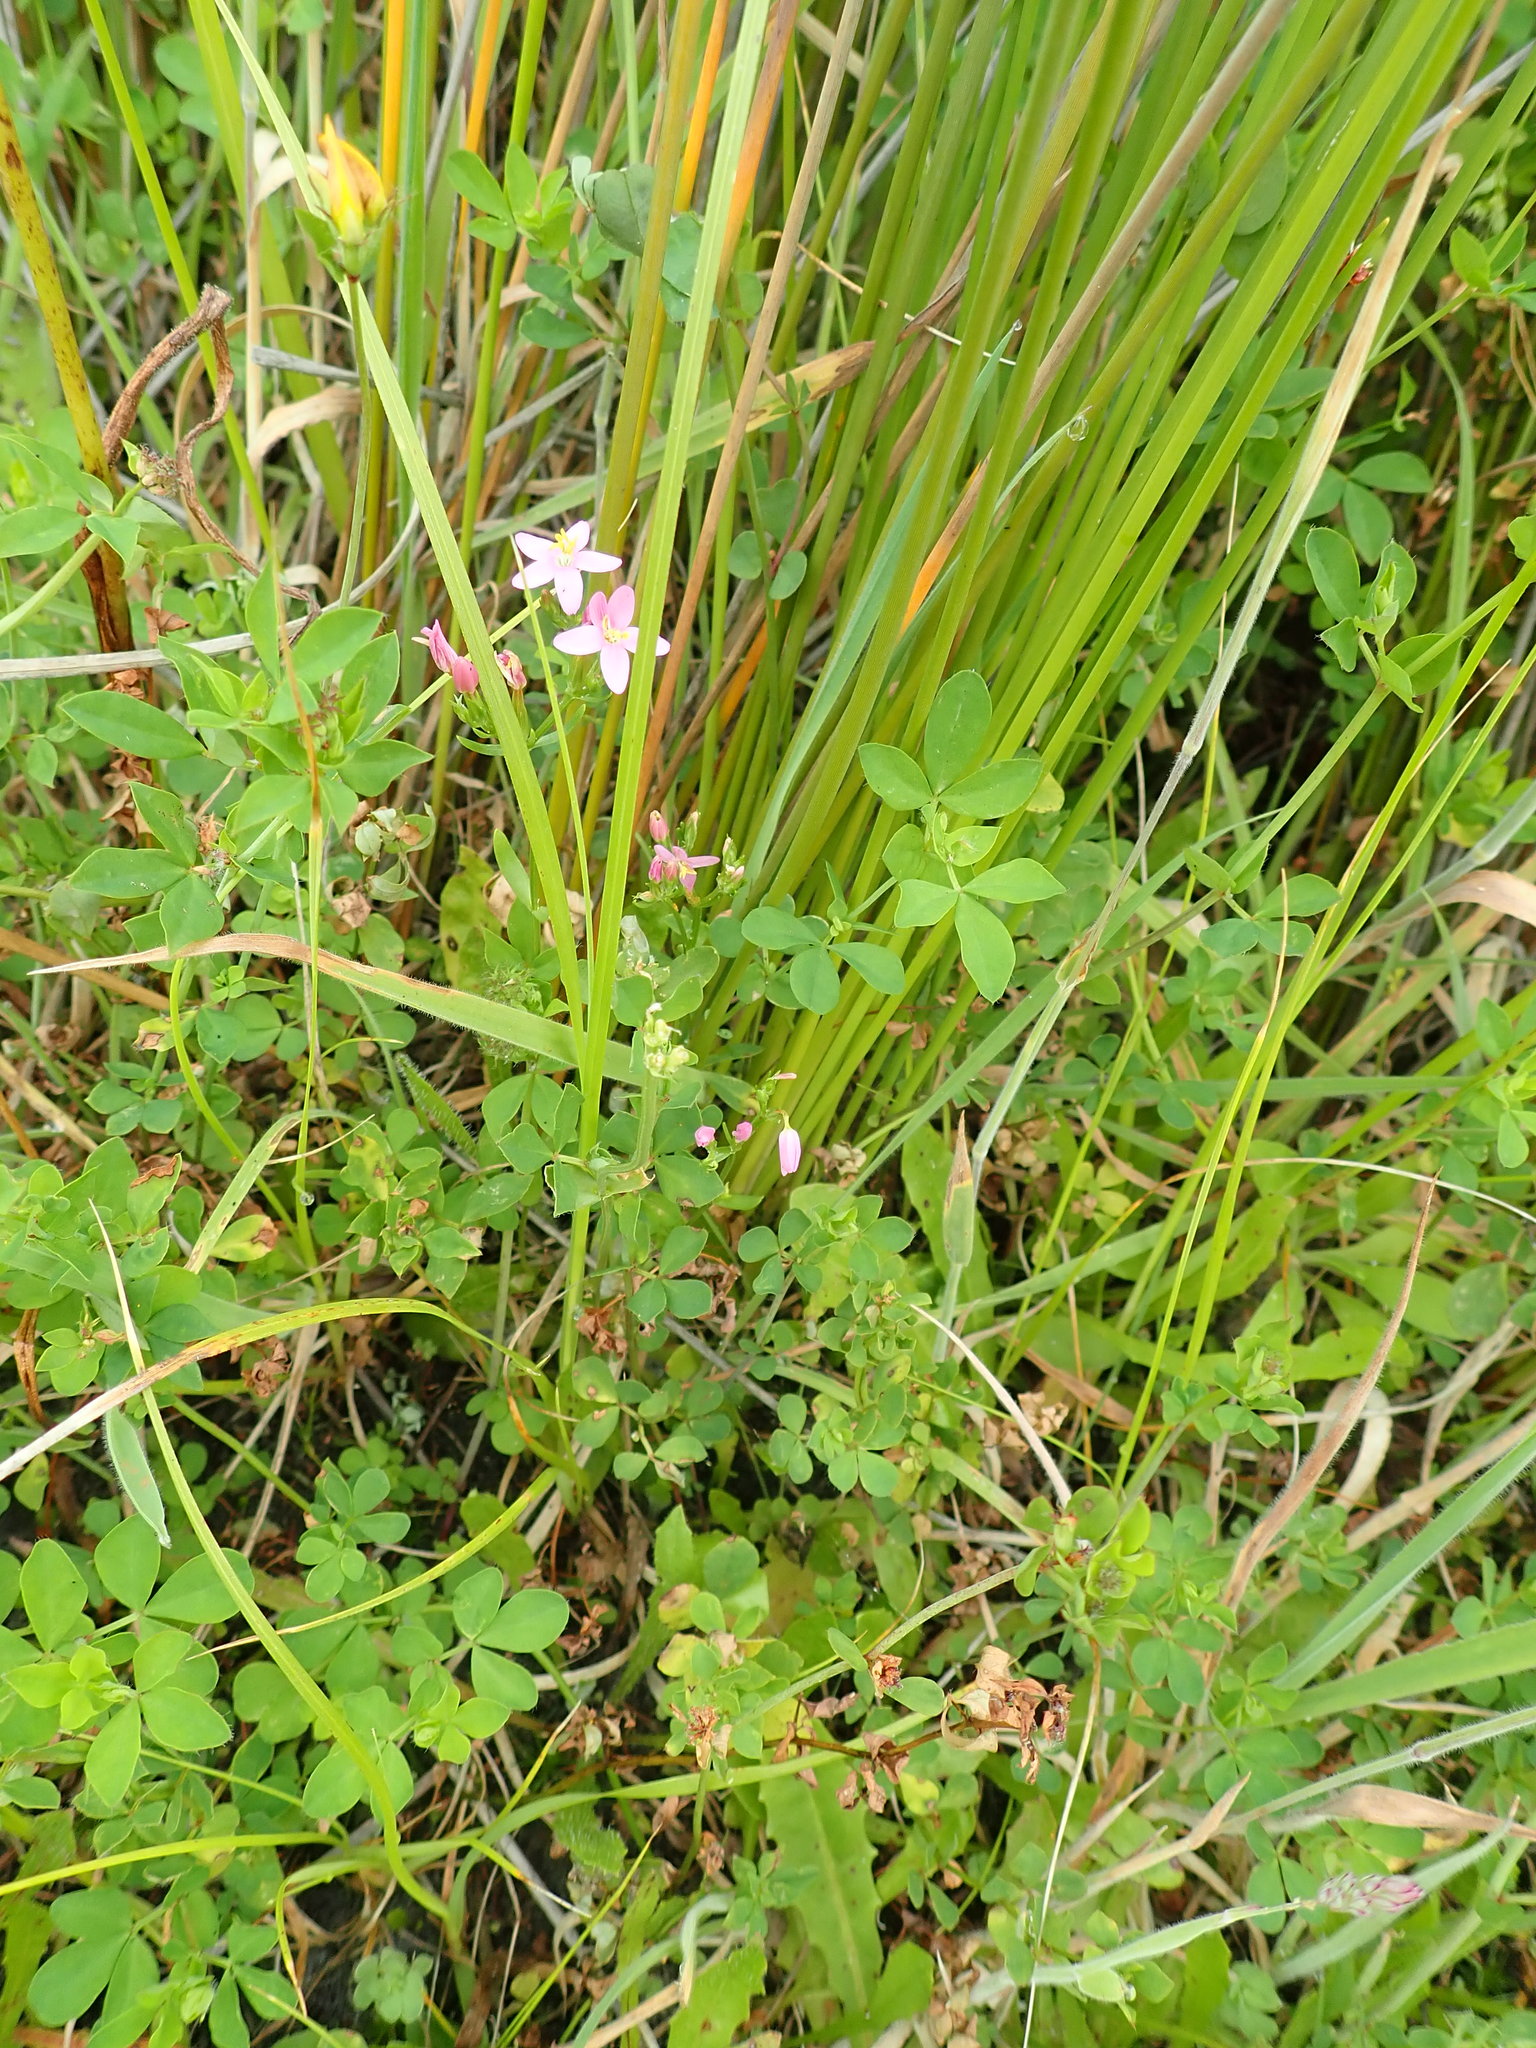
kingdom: Plantae
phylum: Tracheophyta
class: Magnoliopsida
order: Gentianales
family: Gentianaceae
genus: Centaurium
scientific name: Centaurium erythraea
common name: Common centaury
